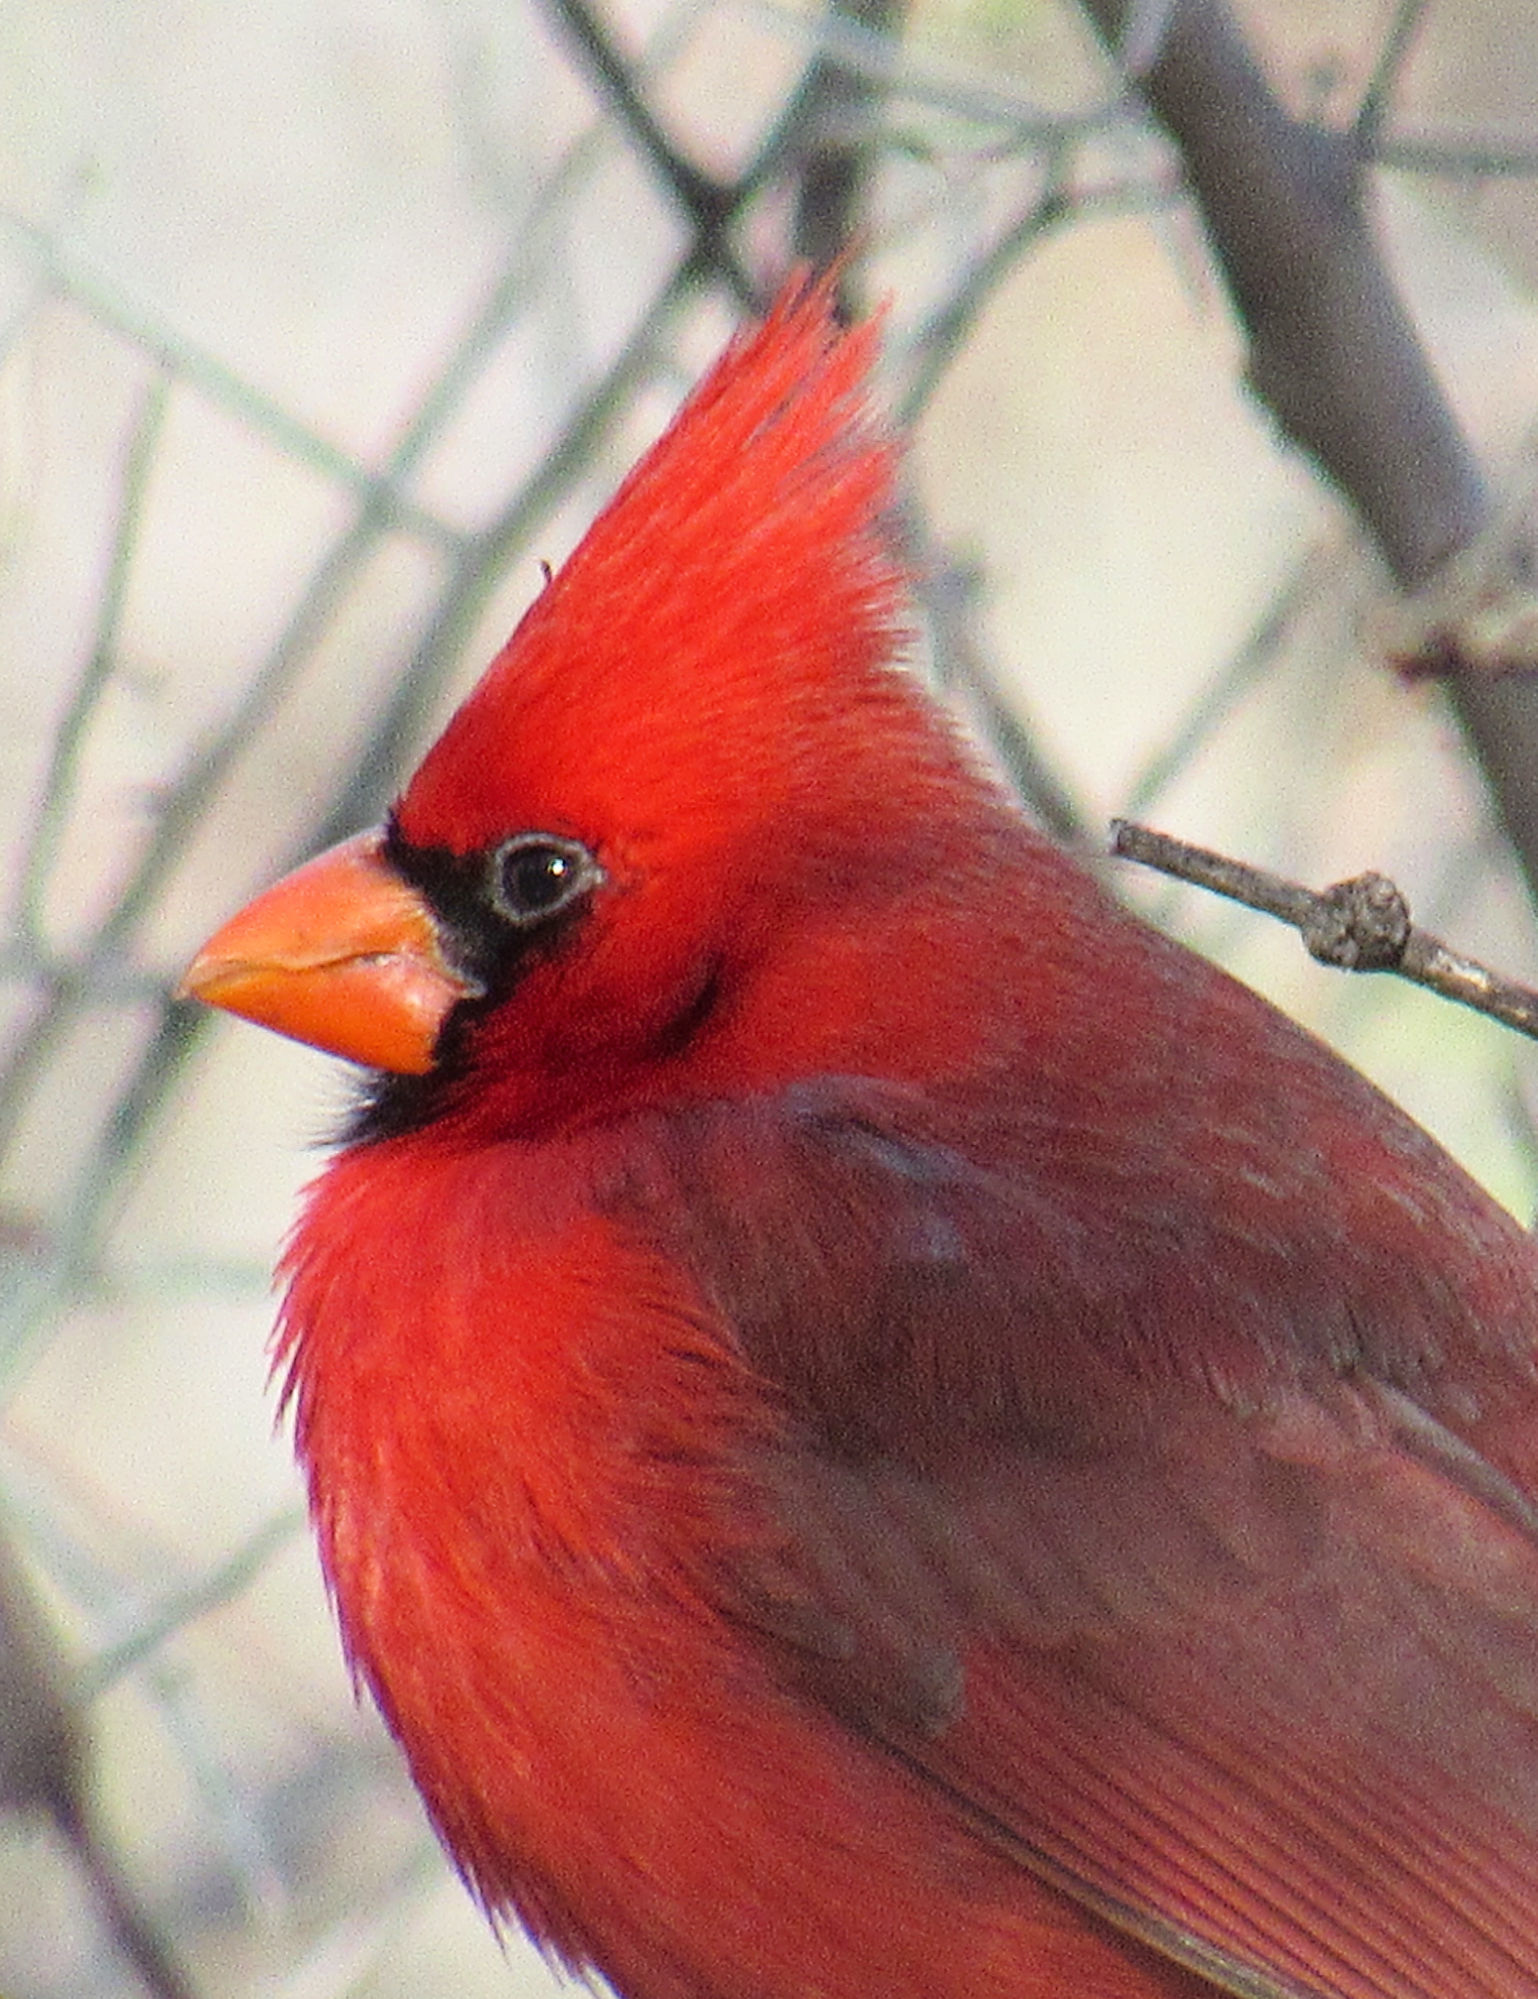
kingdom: Animalia
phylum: Chordata
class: Aves
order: Passeriformes
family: Cardinalidae
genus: Cardinalis
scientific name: Cardinalis cardinalis
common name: Northern cardinal
